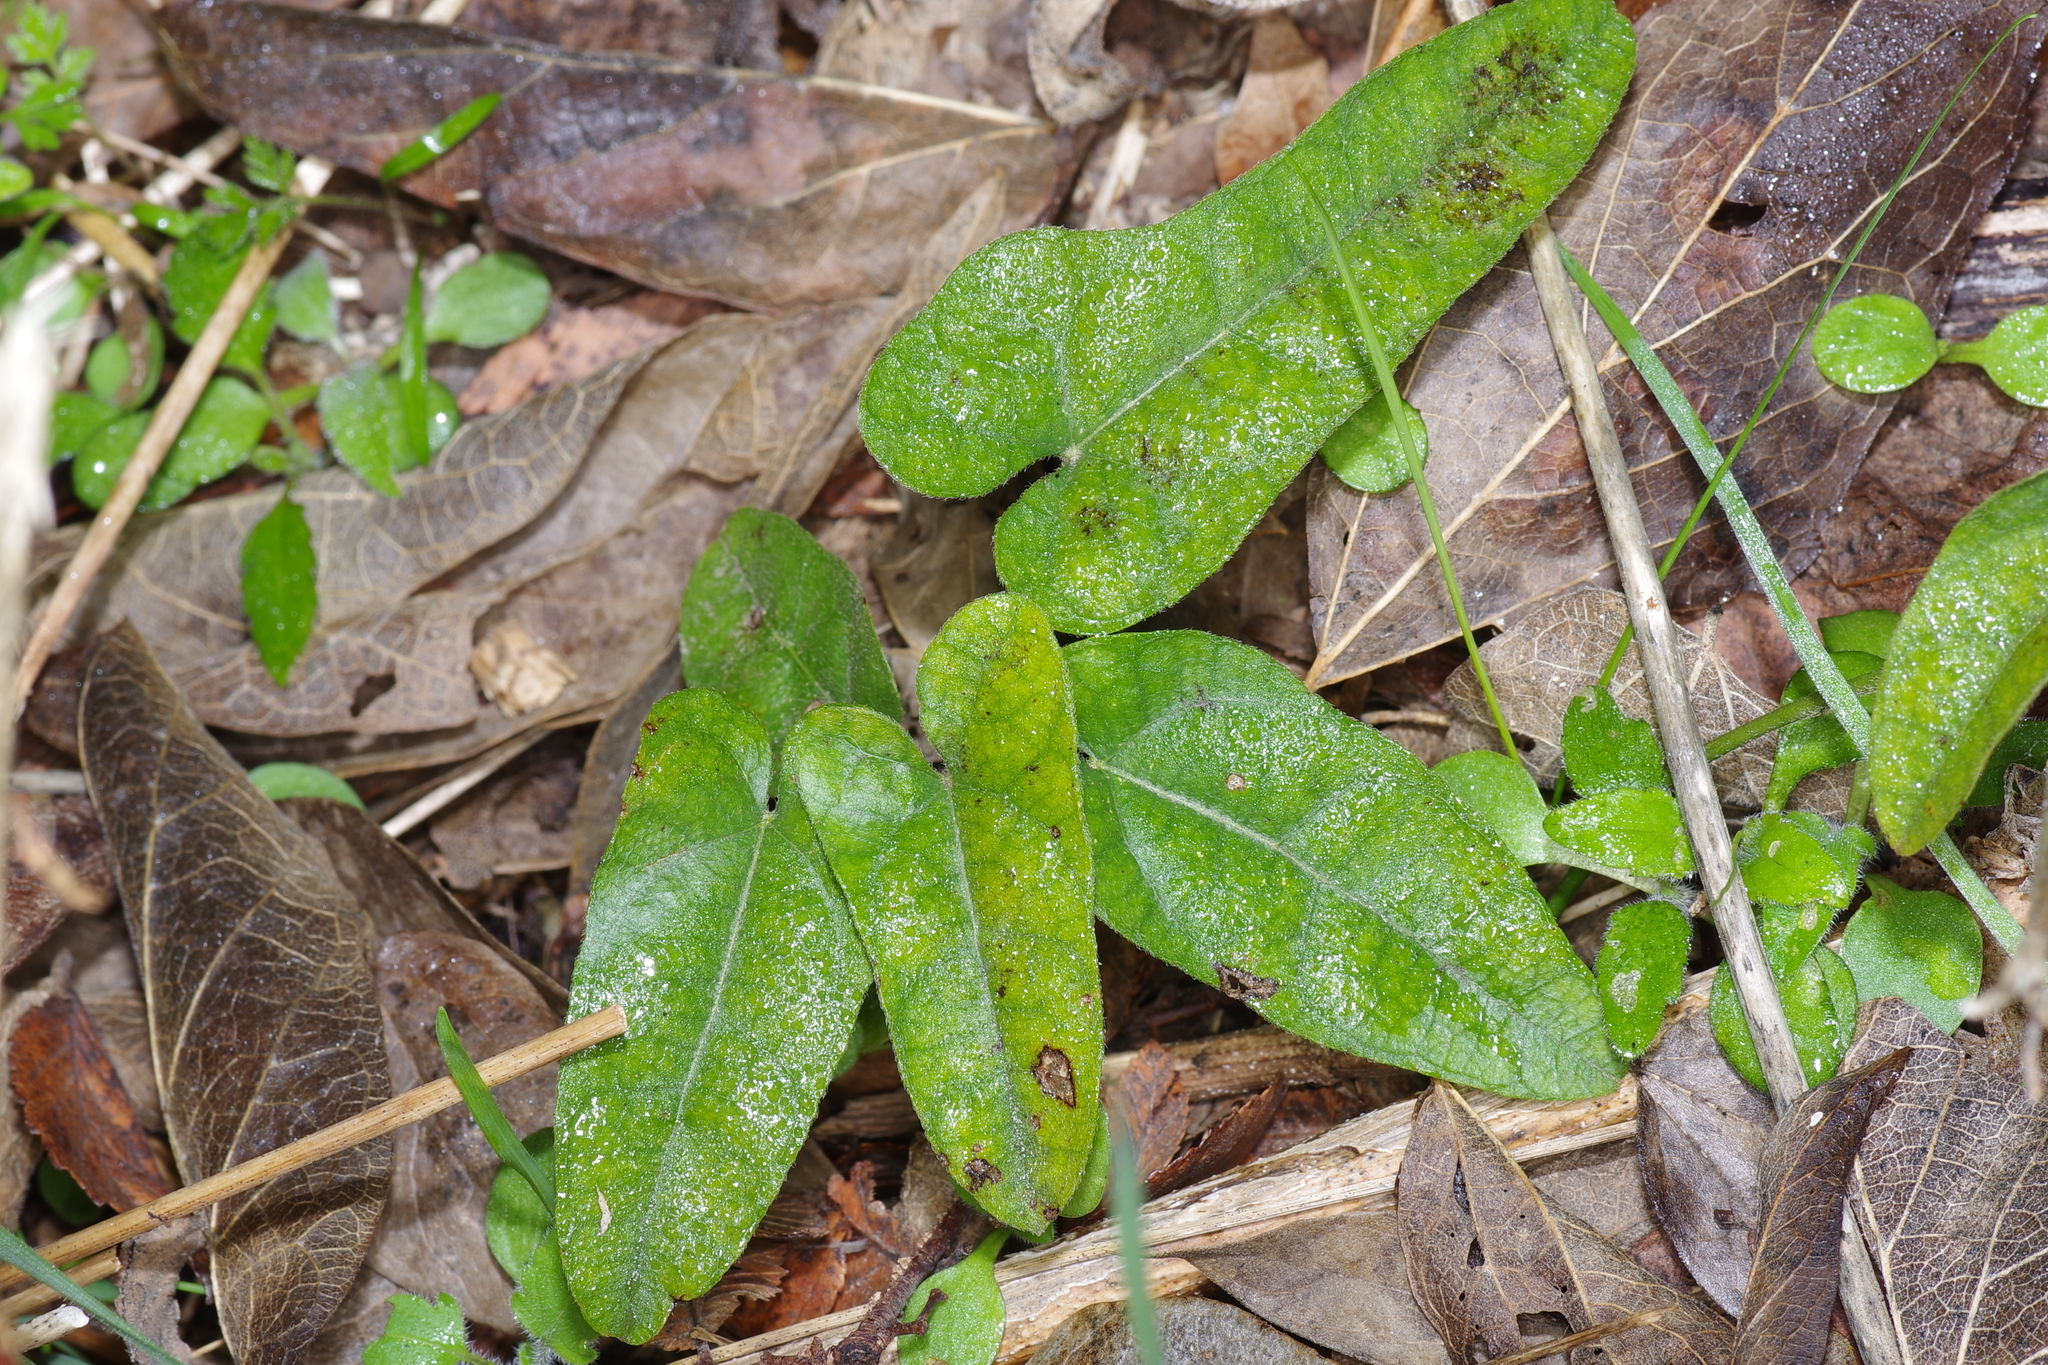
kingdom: Plantae
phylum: Tracheophyta
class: Magnoliopsida
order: Piperales
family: Aristolochiaceae
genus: Endodeca
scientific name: Endodeca serpentaria
